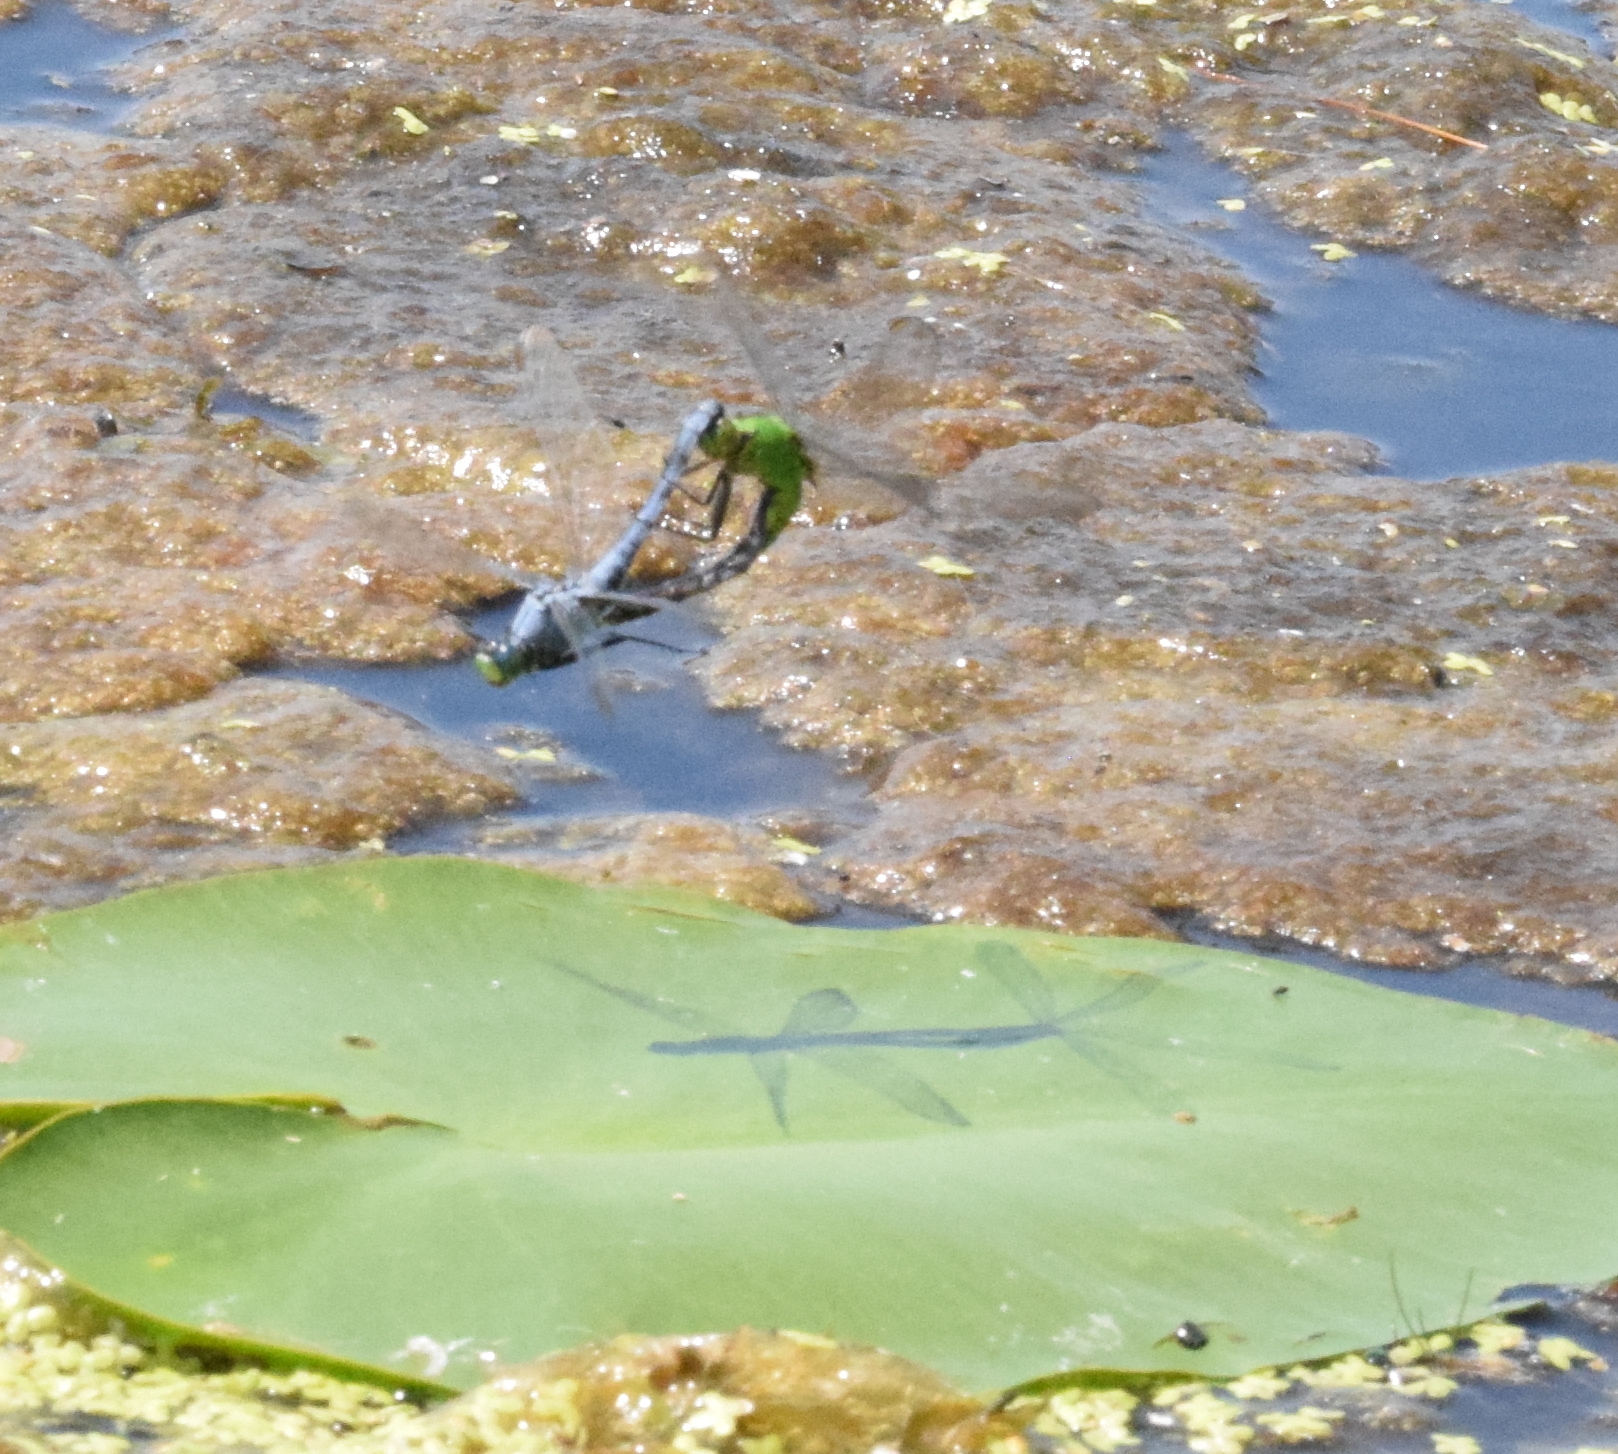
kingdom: Animalia
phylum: Arthropoda
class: Insecta
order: Odonata
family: Libellulidae
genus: Erythemis
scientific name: Erythemis simplicicollis
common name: Eastern pondhawk
